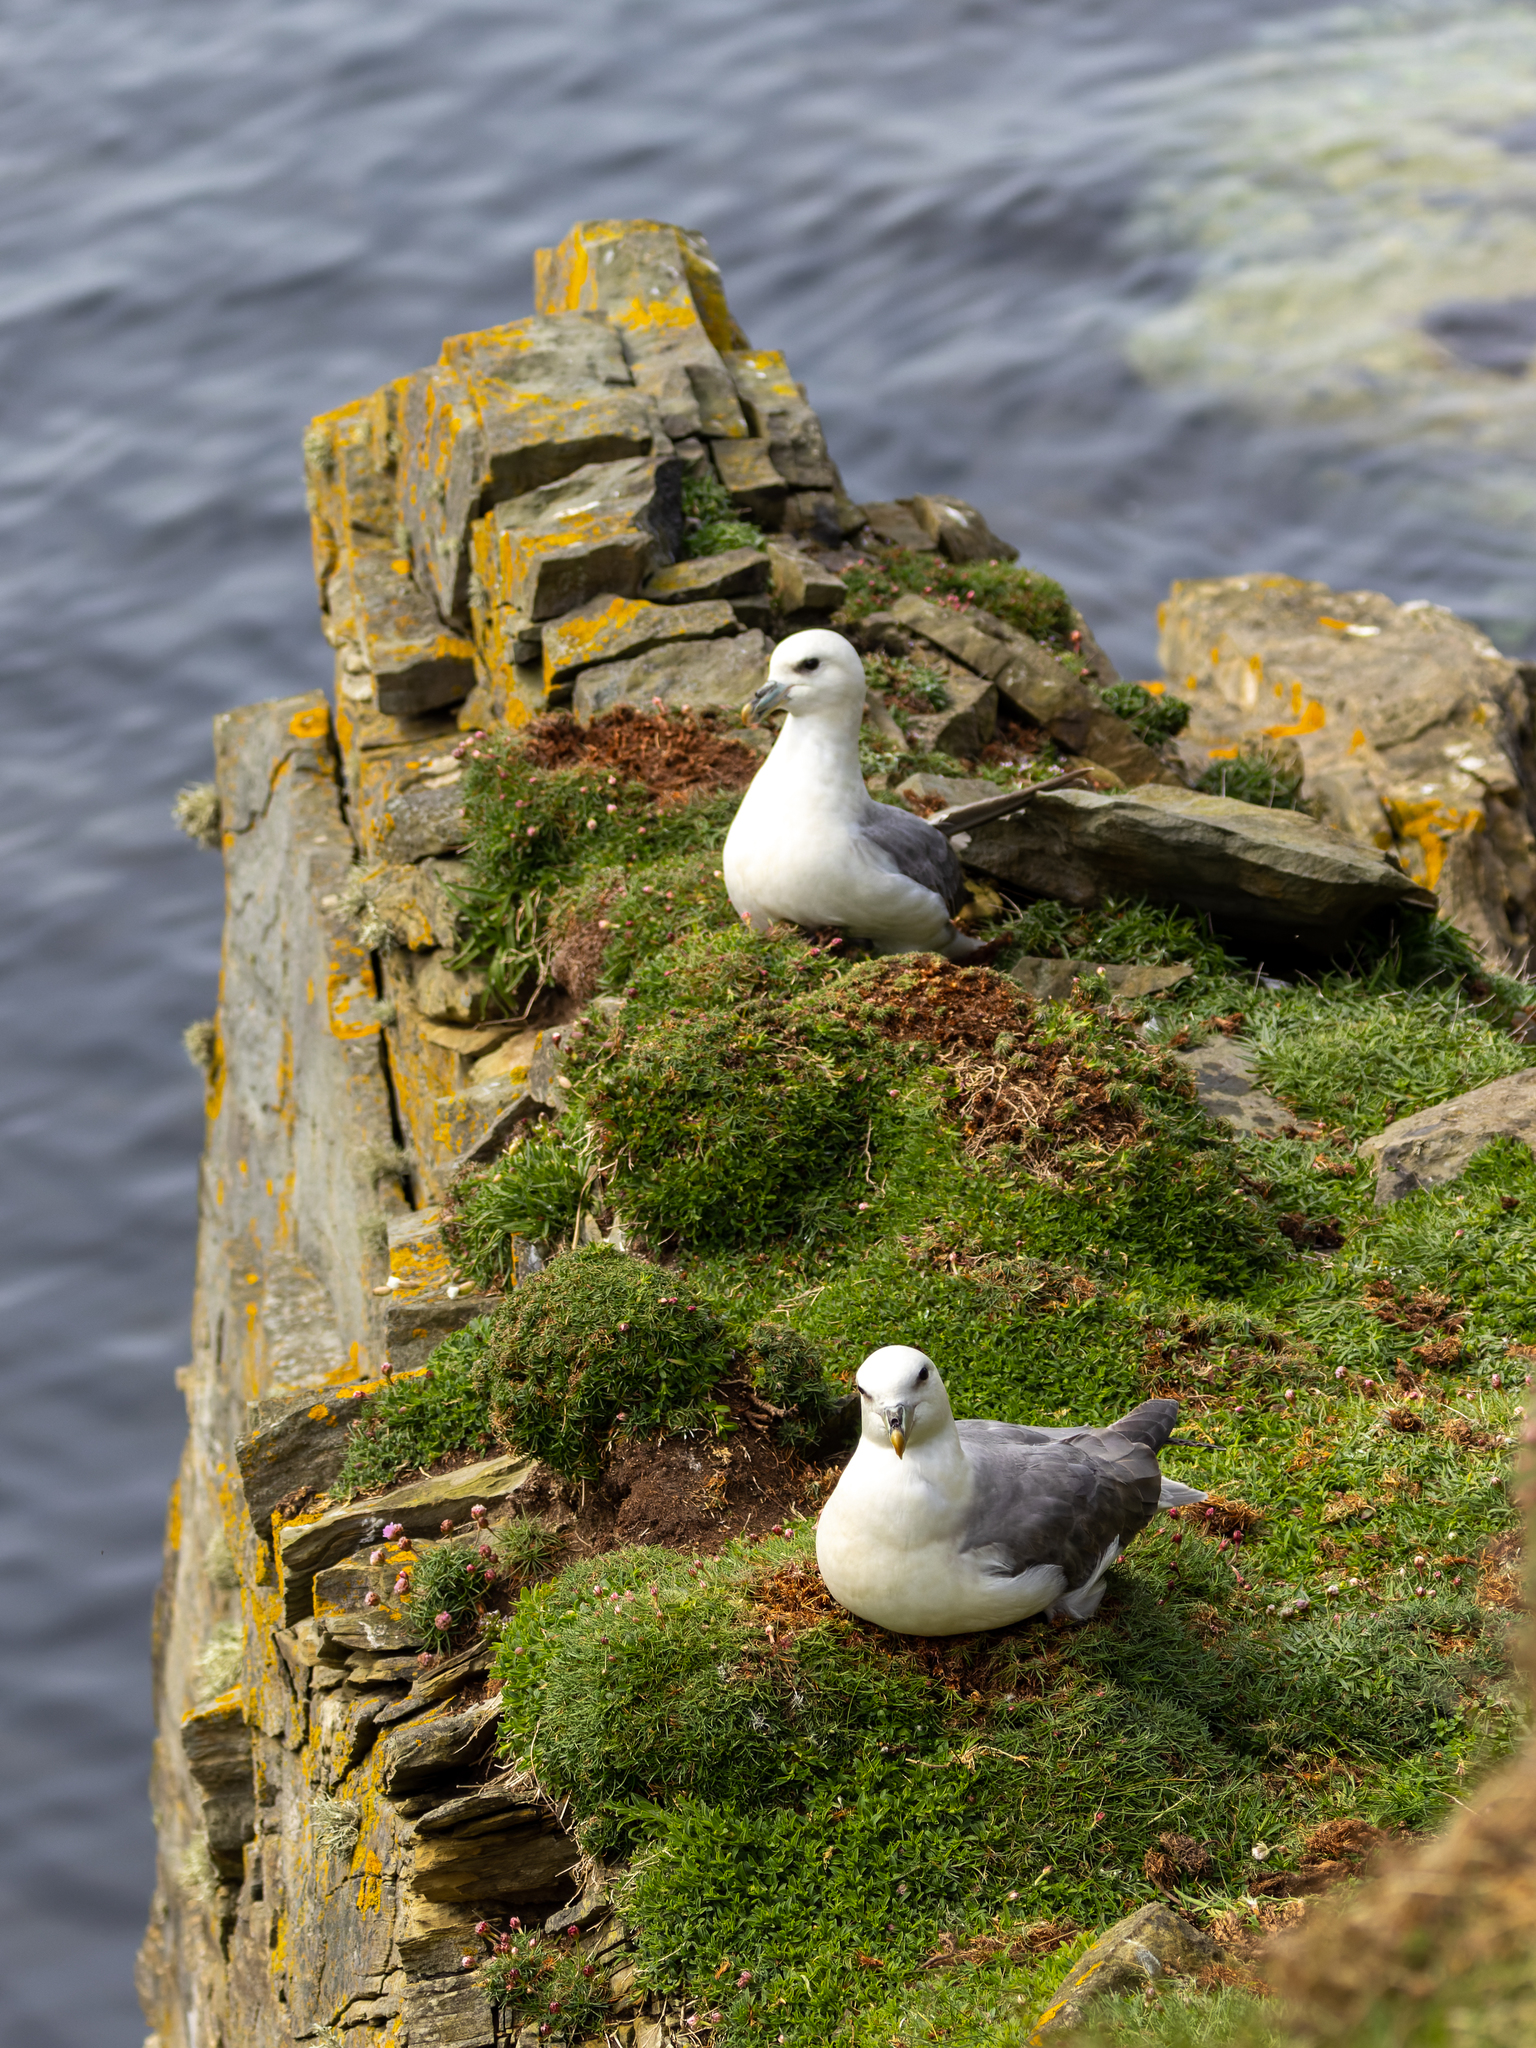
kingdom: Animalia
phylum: Chordata
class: Aves
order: Procellariiformes
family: Procellariidae
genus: Fulmarus
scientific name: Fulmarus glacialis
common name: Northern fulmar
